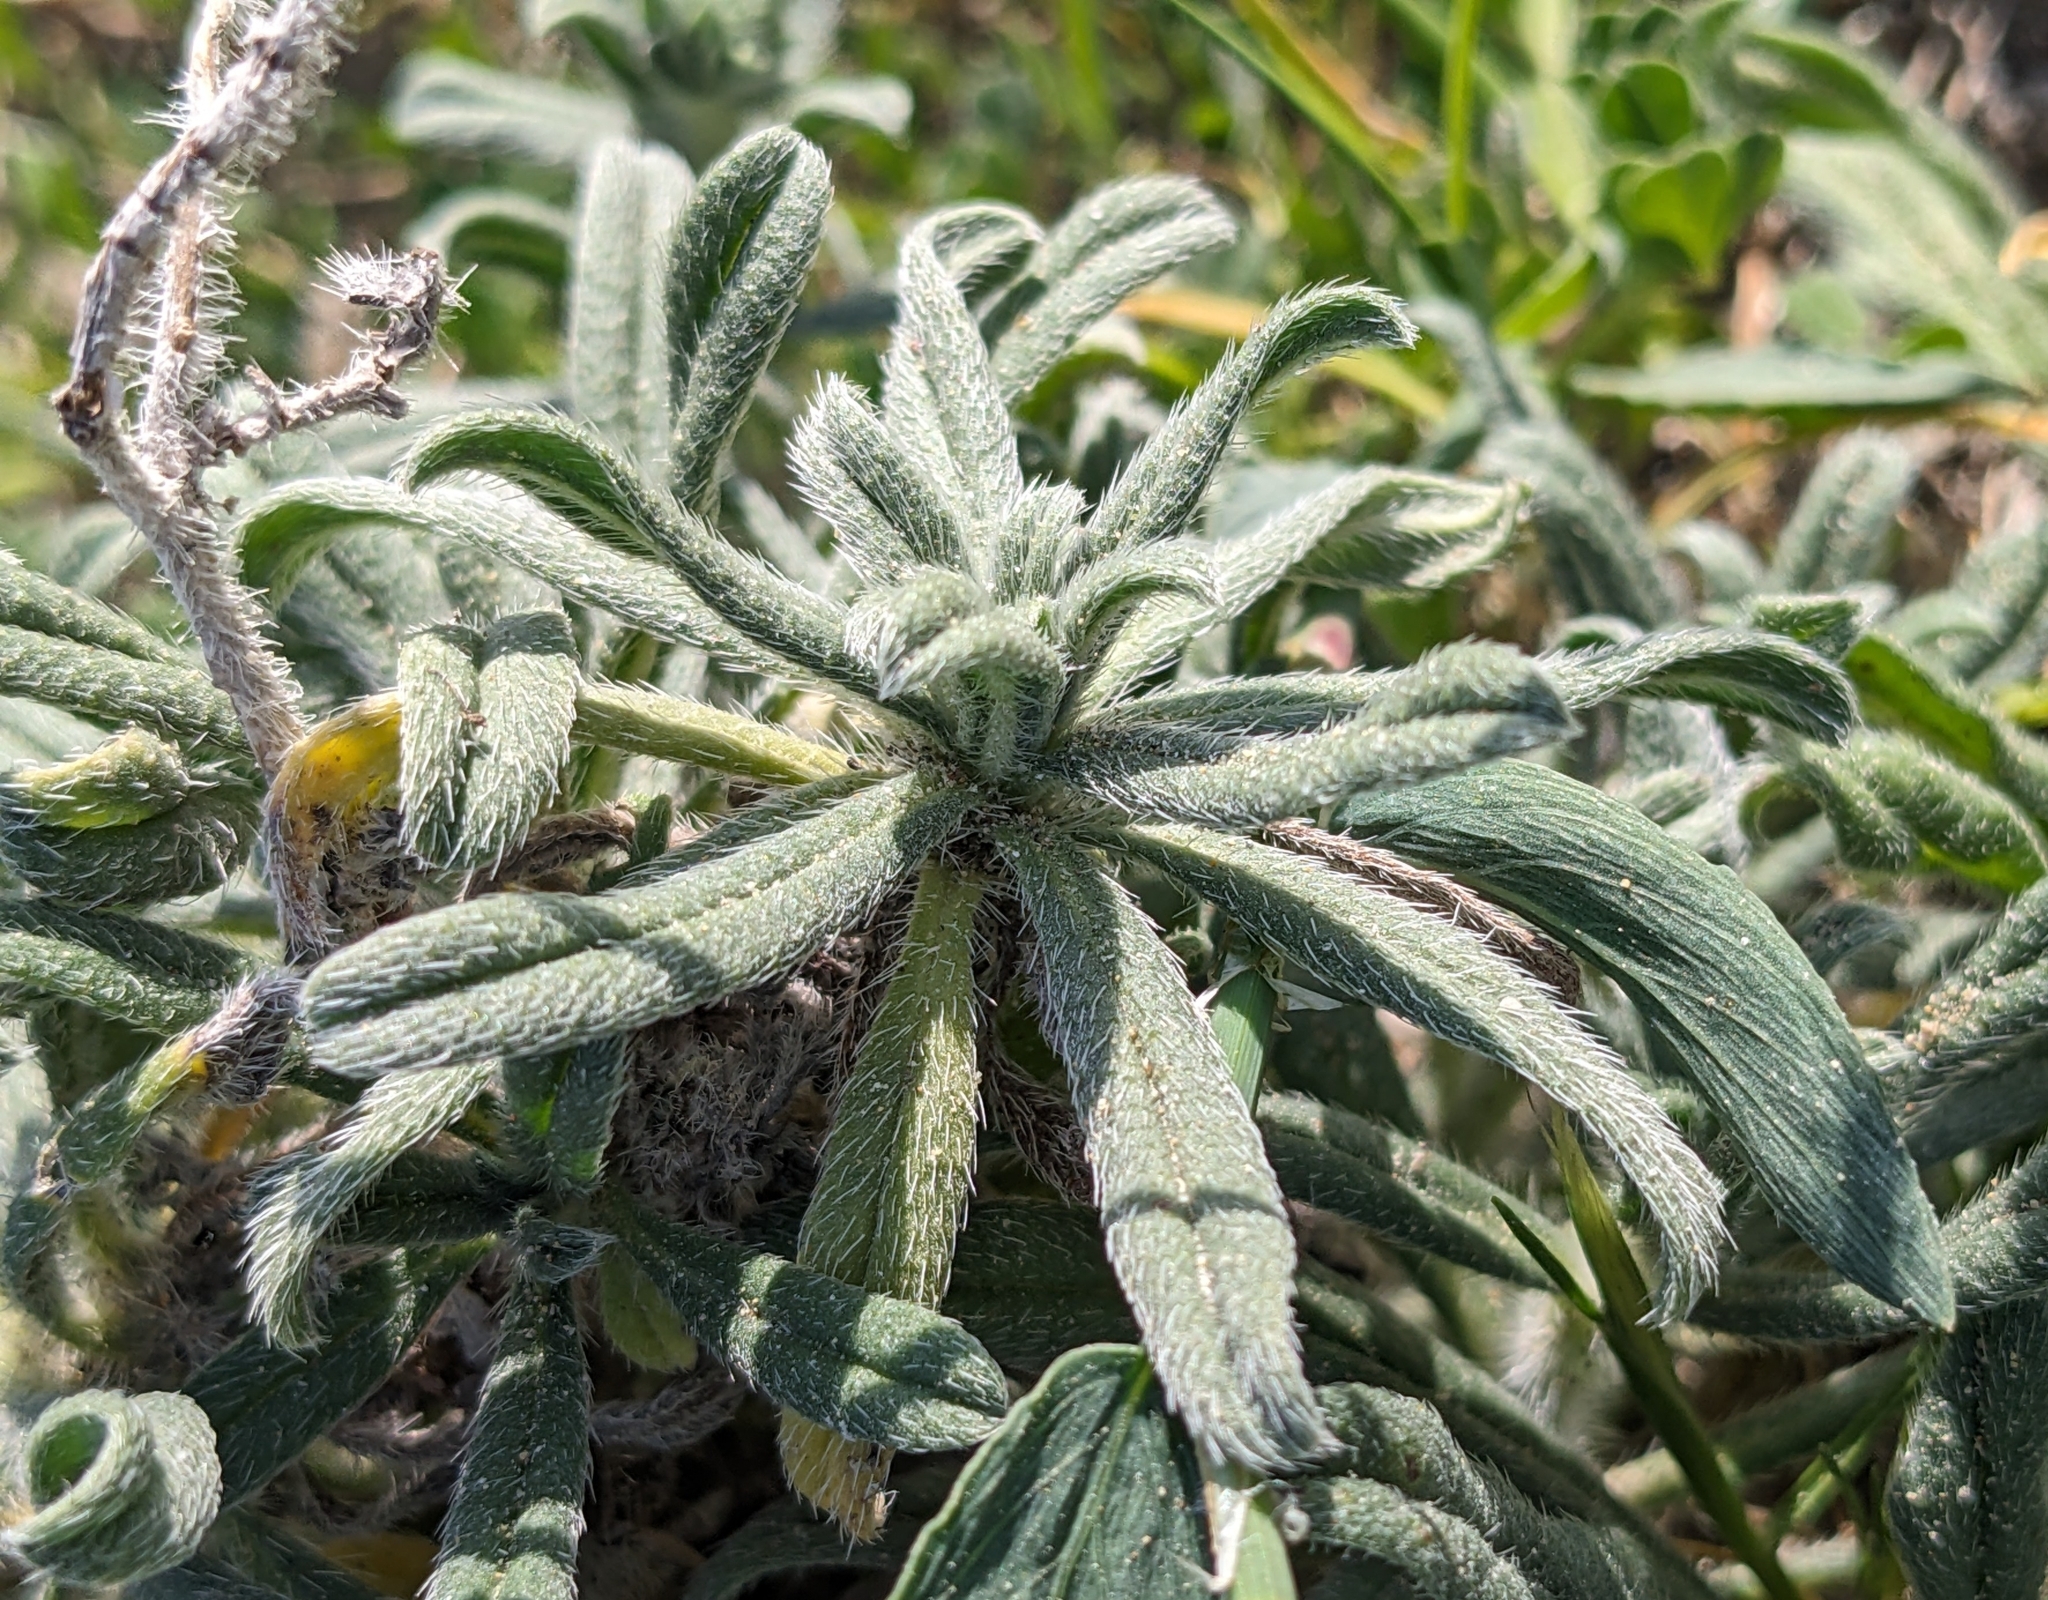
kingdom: Plantae
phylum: Tracheophyta
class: Magnoliopsida
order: Boraginales
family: Boraginaceae
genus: Echium
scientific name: Echium angustifolium
